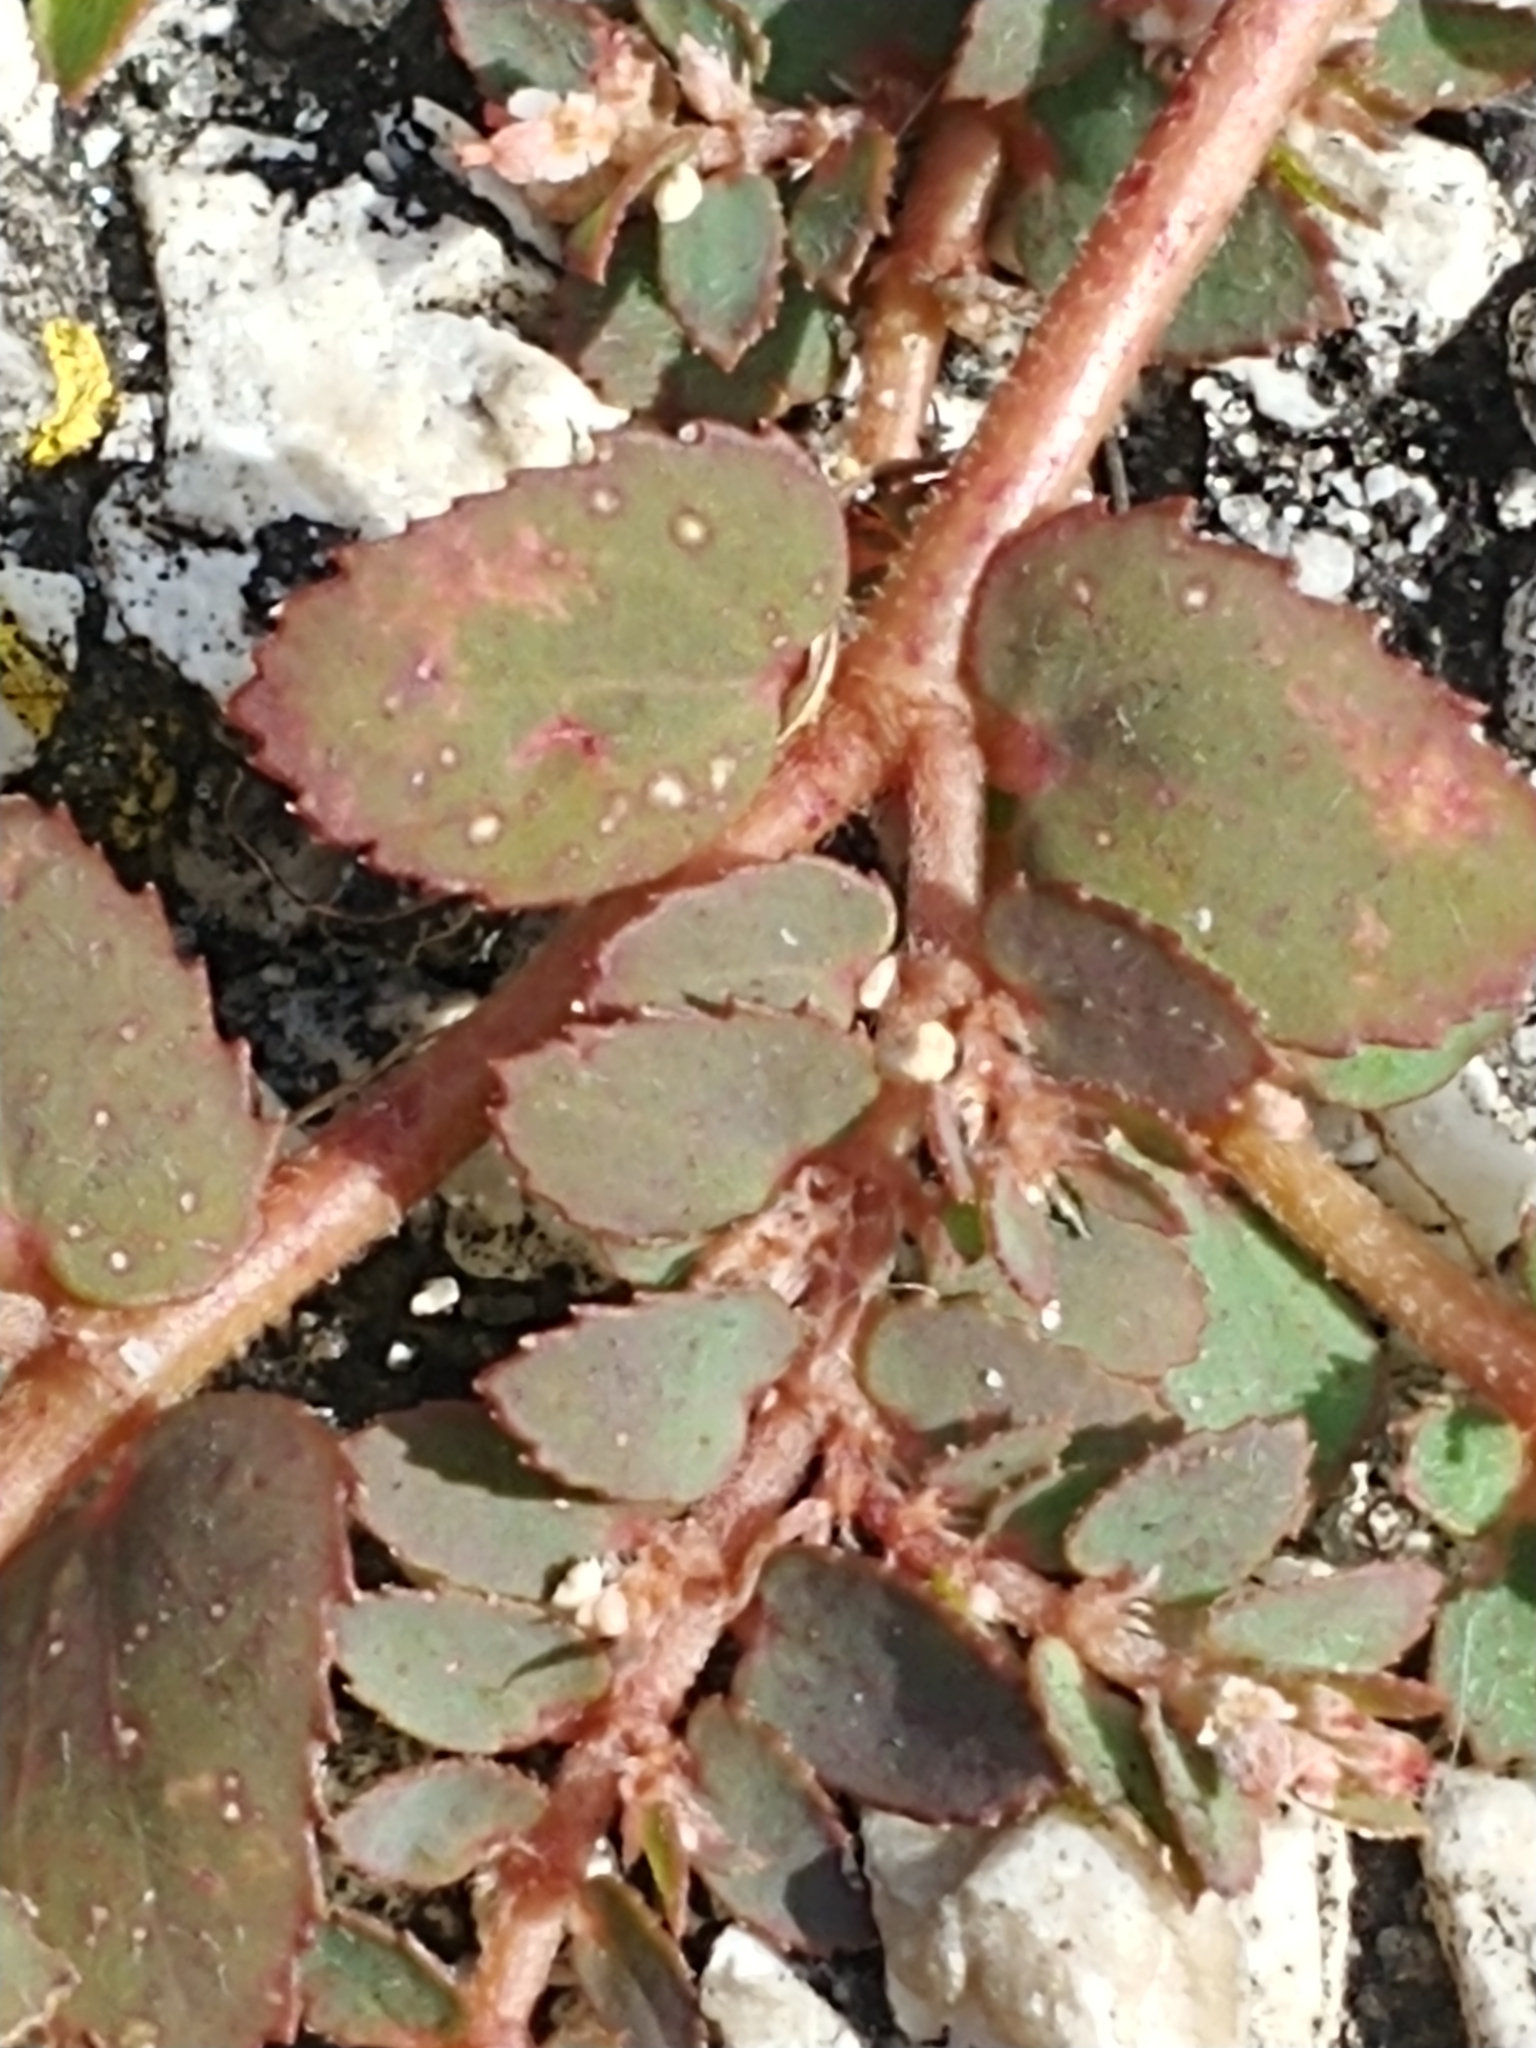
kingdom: Plantae
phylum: Tracheophyta
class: Magnoliopsida
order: Malpighiales
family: Euphorbiaceae
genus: Euphorbia
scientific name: Euphorbia thymifolia
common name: Gulf sandmat
